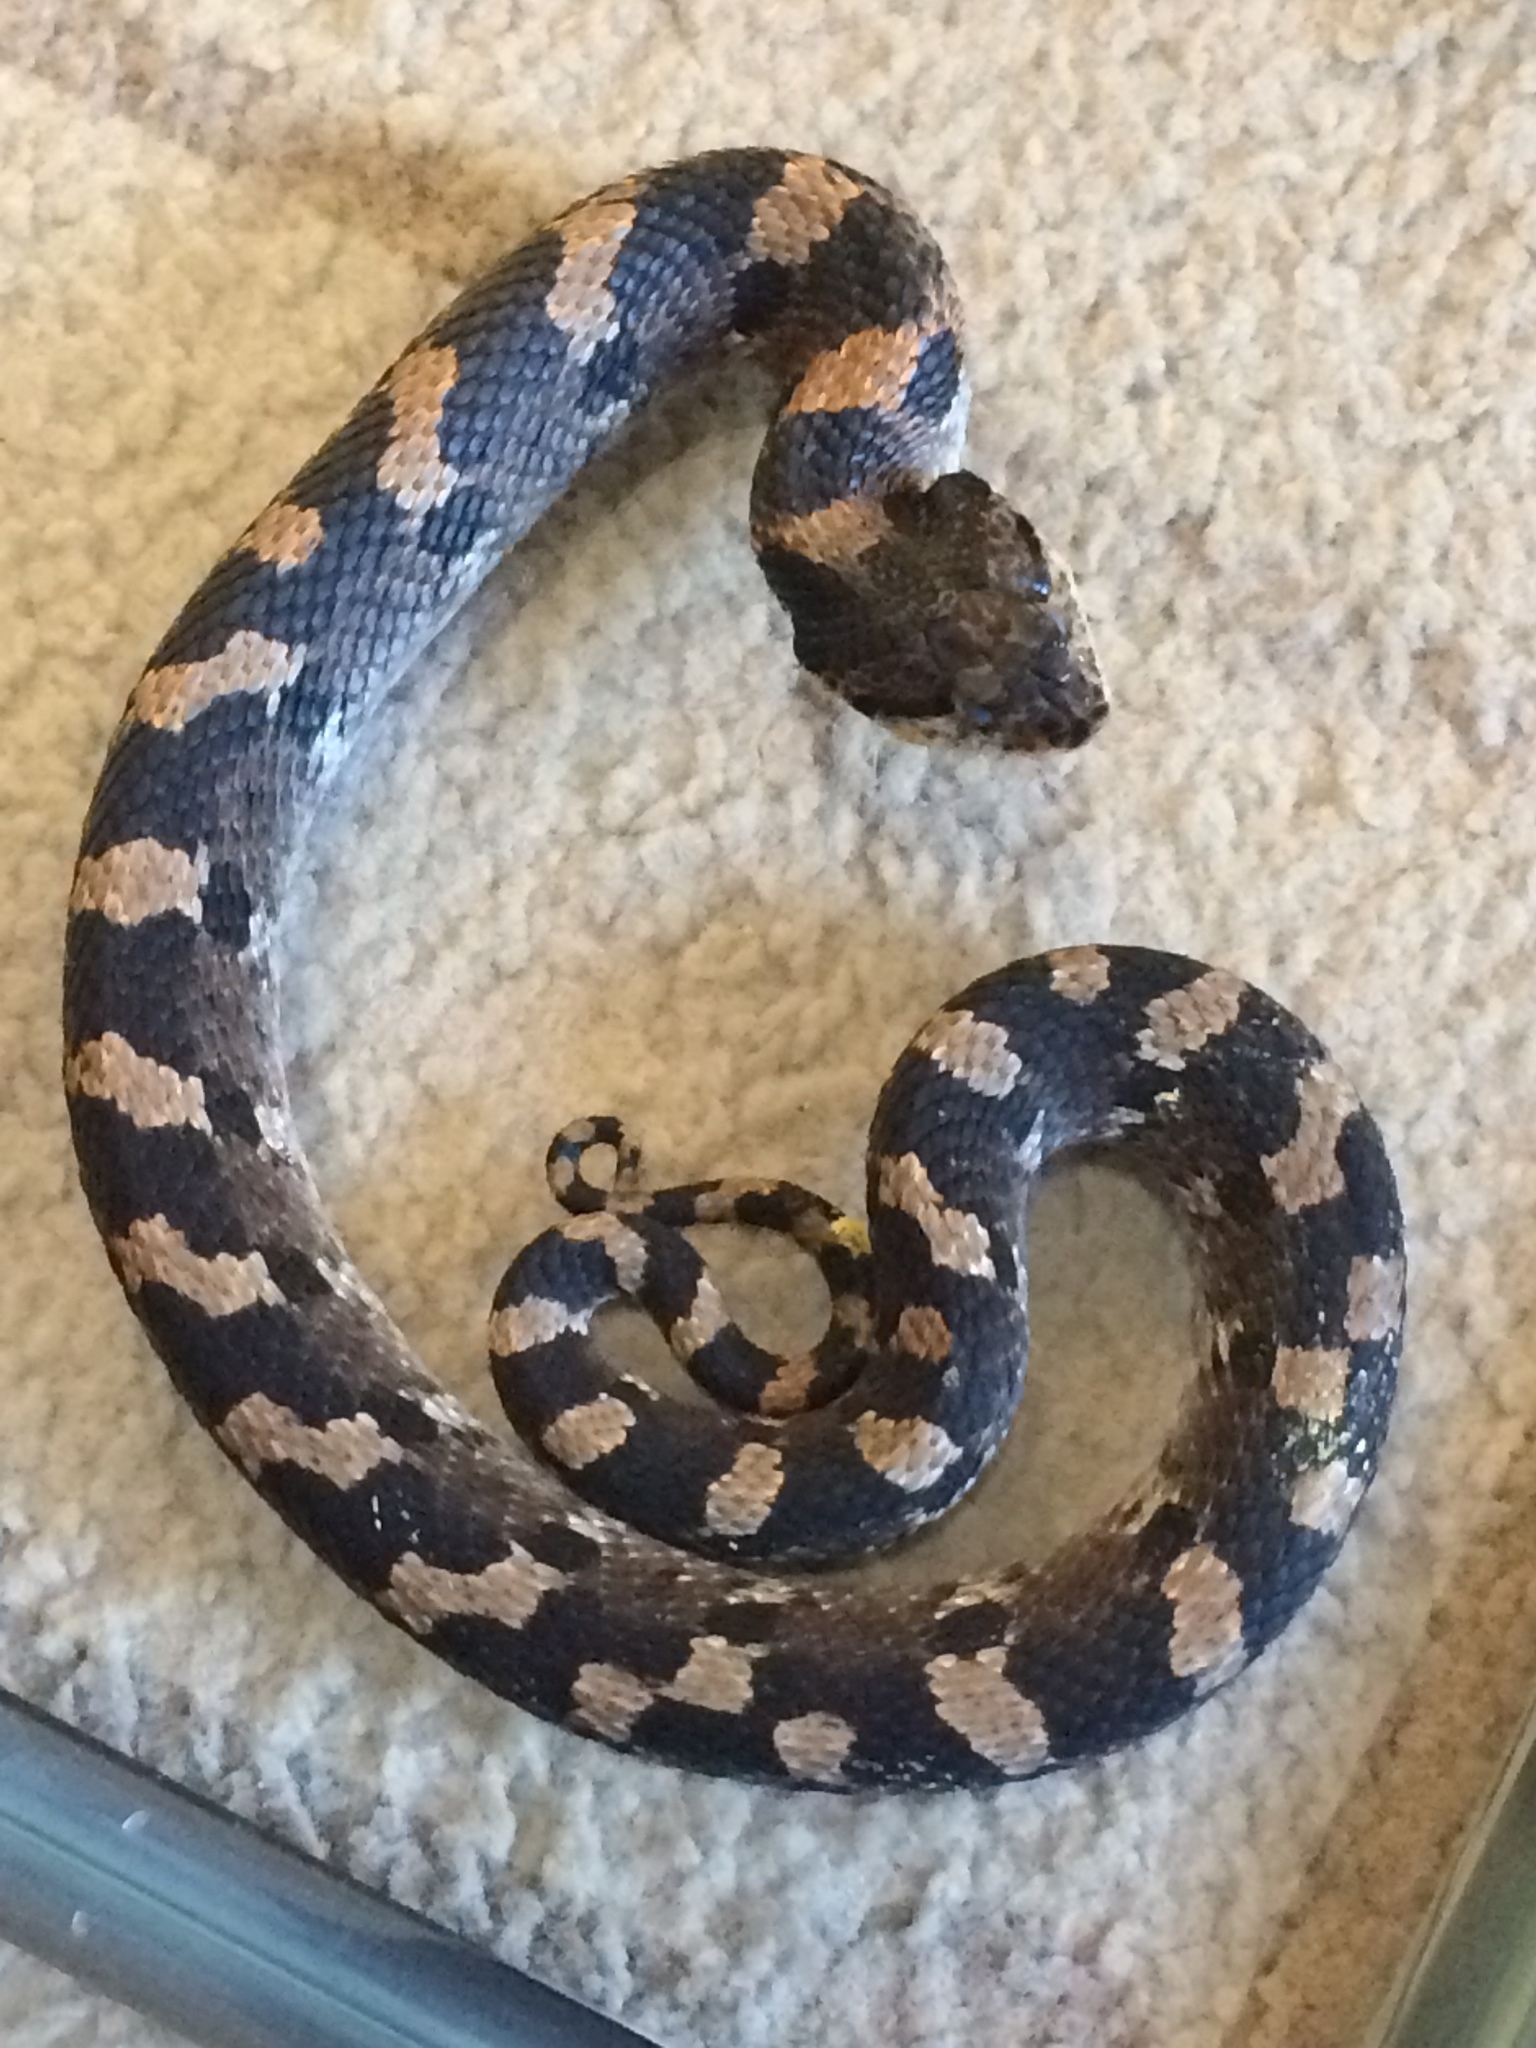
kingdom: Animalia
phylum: Chordata
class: Squamata
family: Colubridae
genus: Heterodon
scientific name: Heterodon platirhinos
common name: Eastern hognose snake
